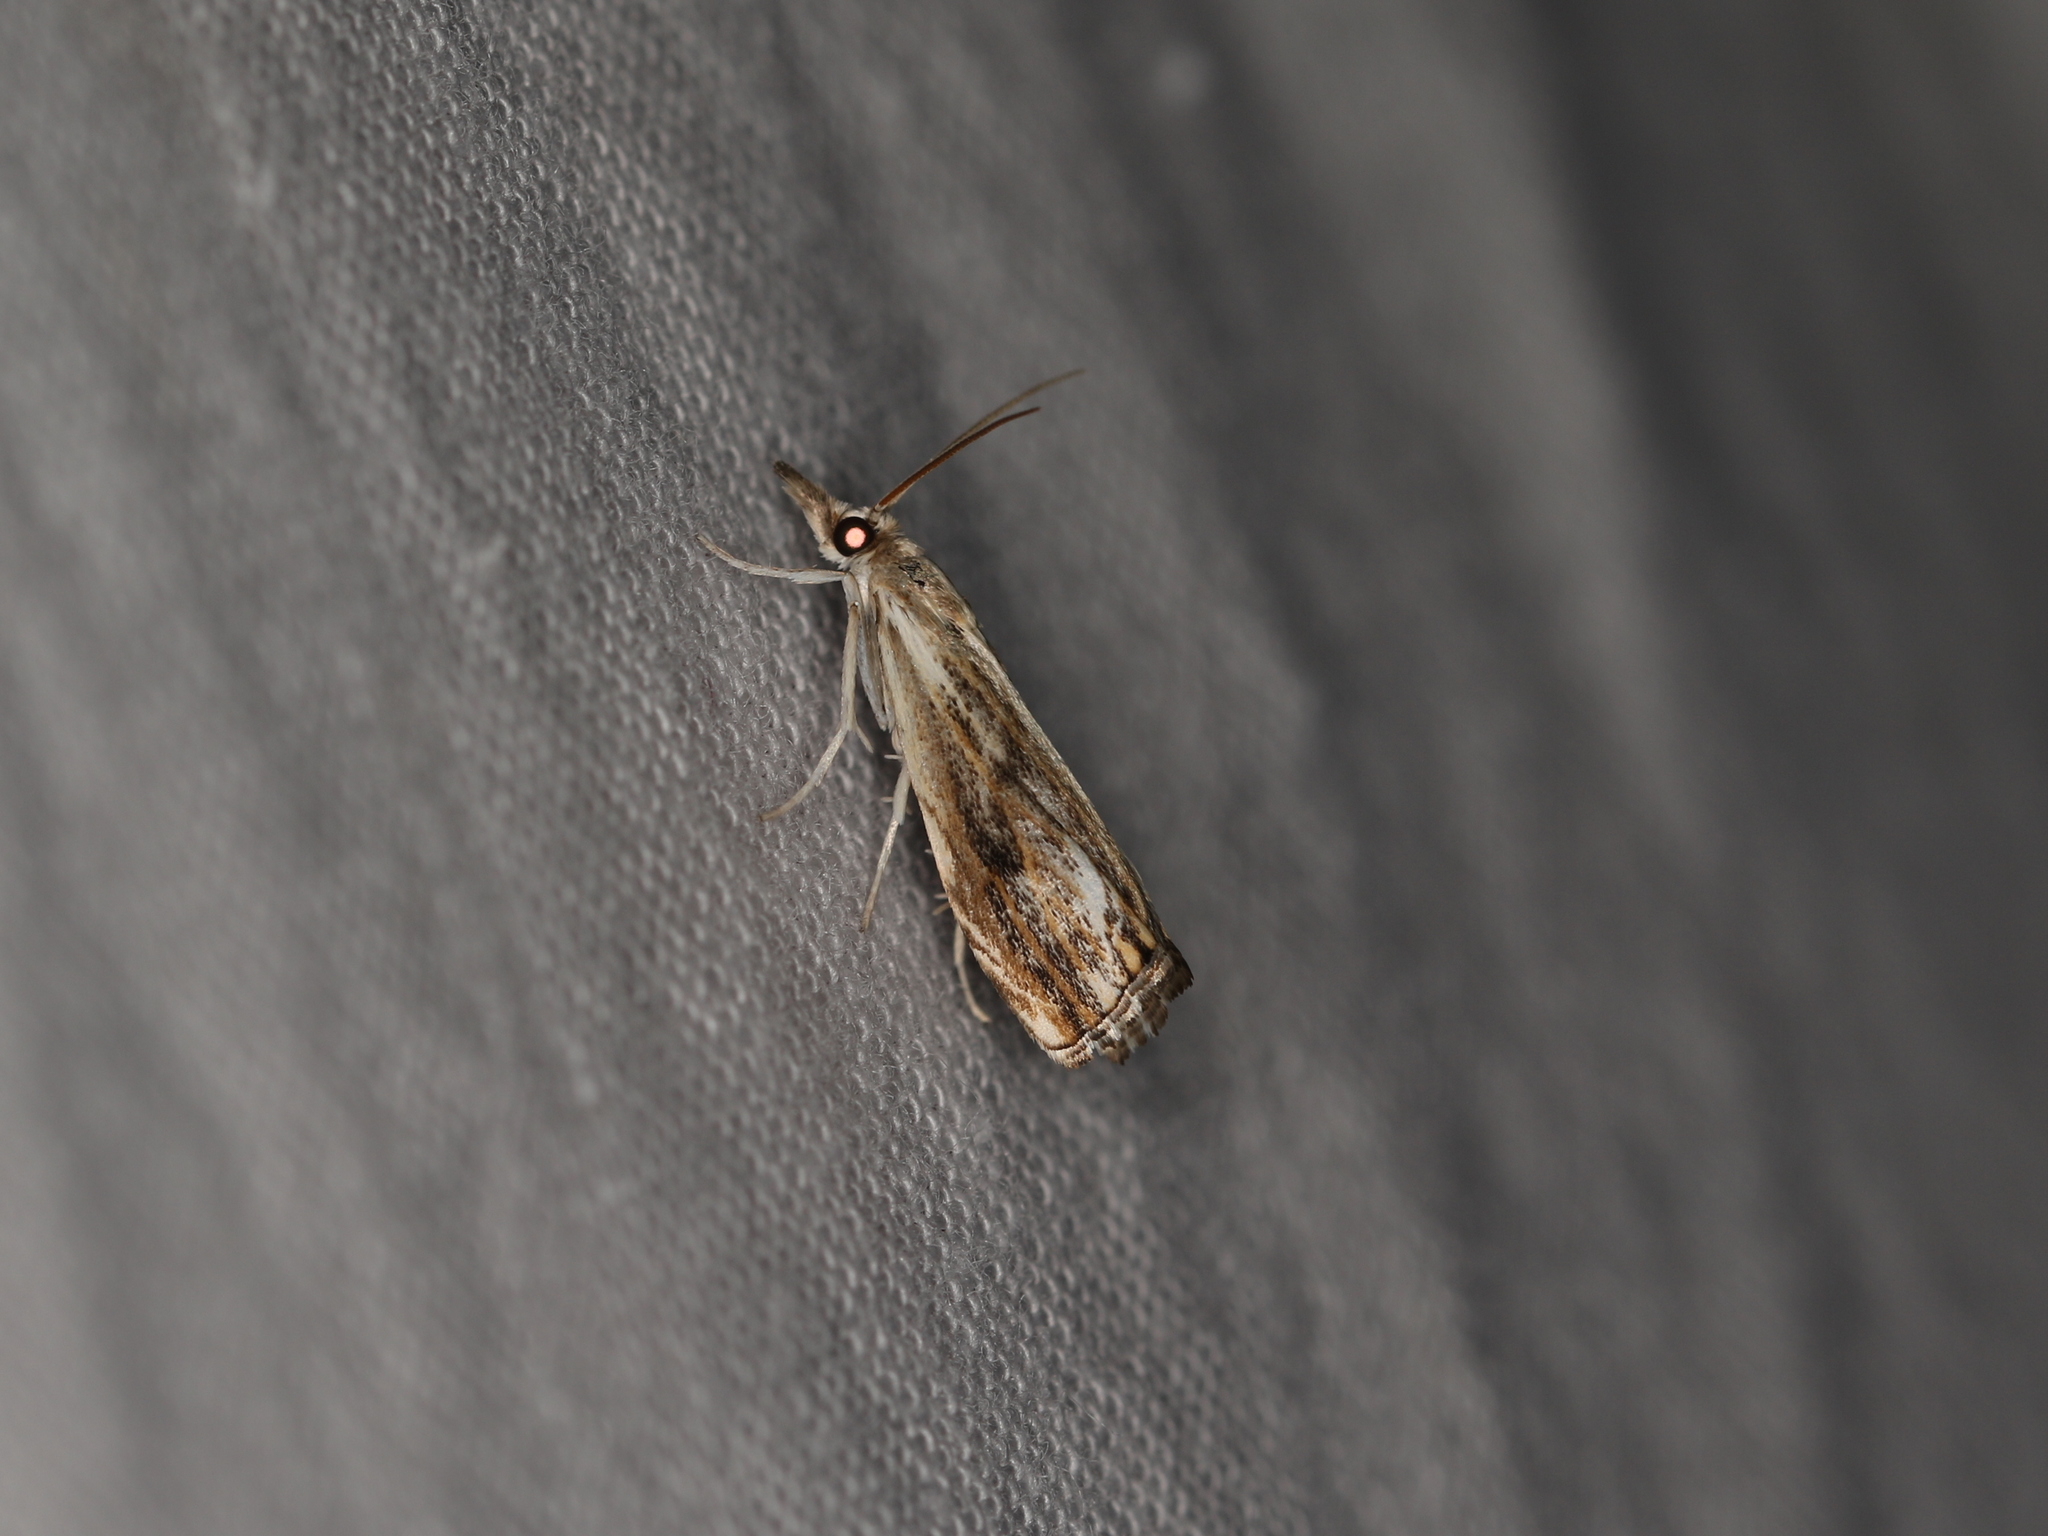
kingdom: Animalia
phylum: Arthropoda
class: Insecta
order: Lepidoptera
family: Crambidae
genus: Catoptria
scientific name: Catoptria verellus
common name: Marbled grass-veneer
